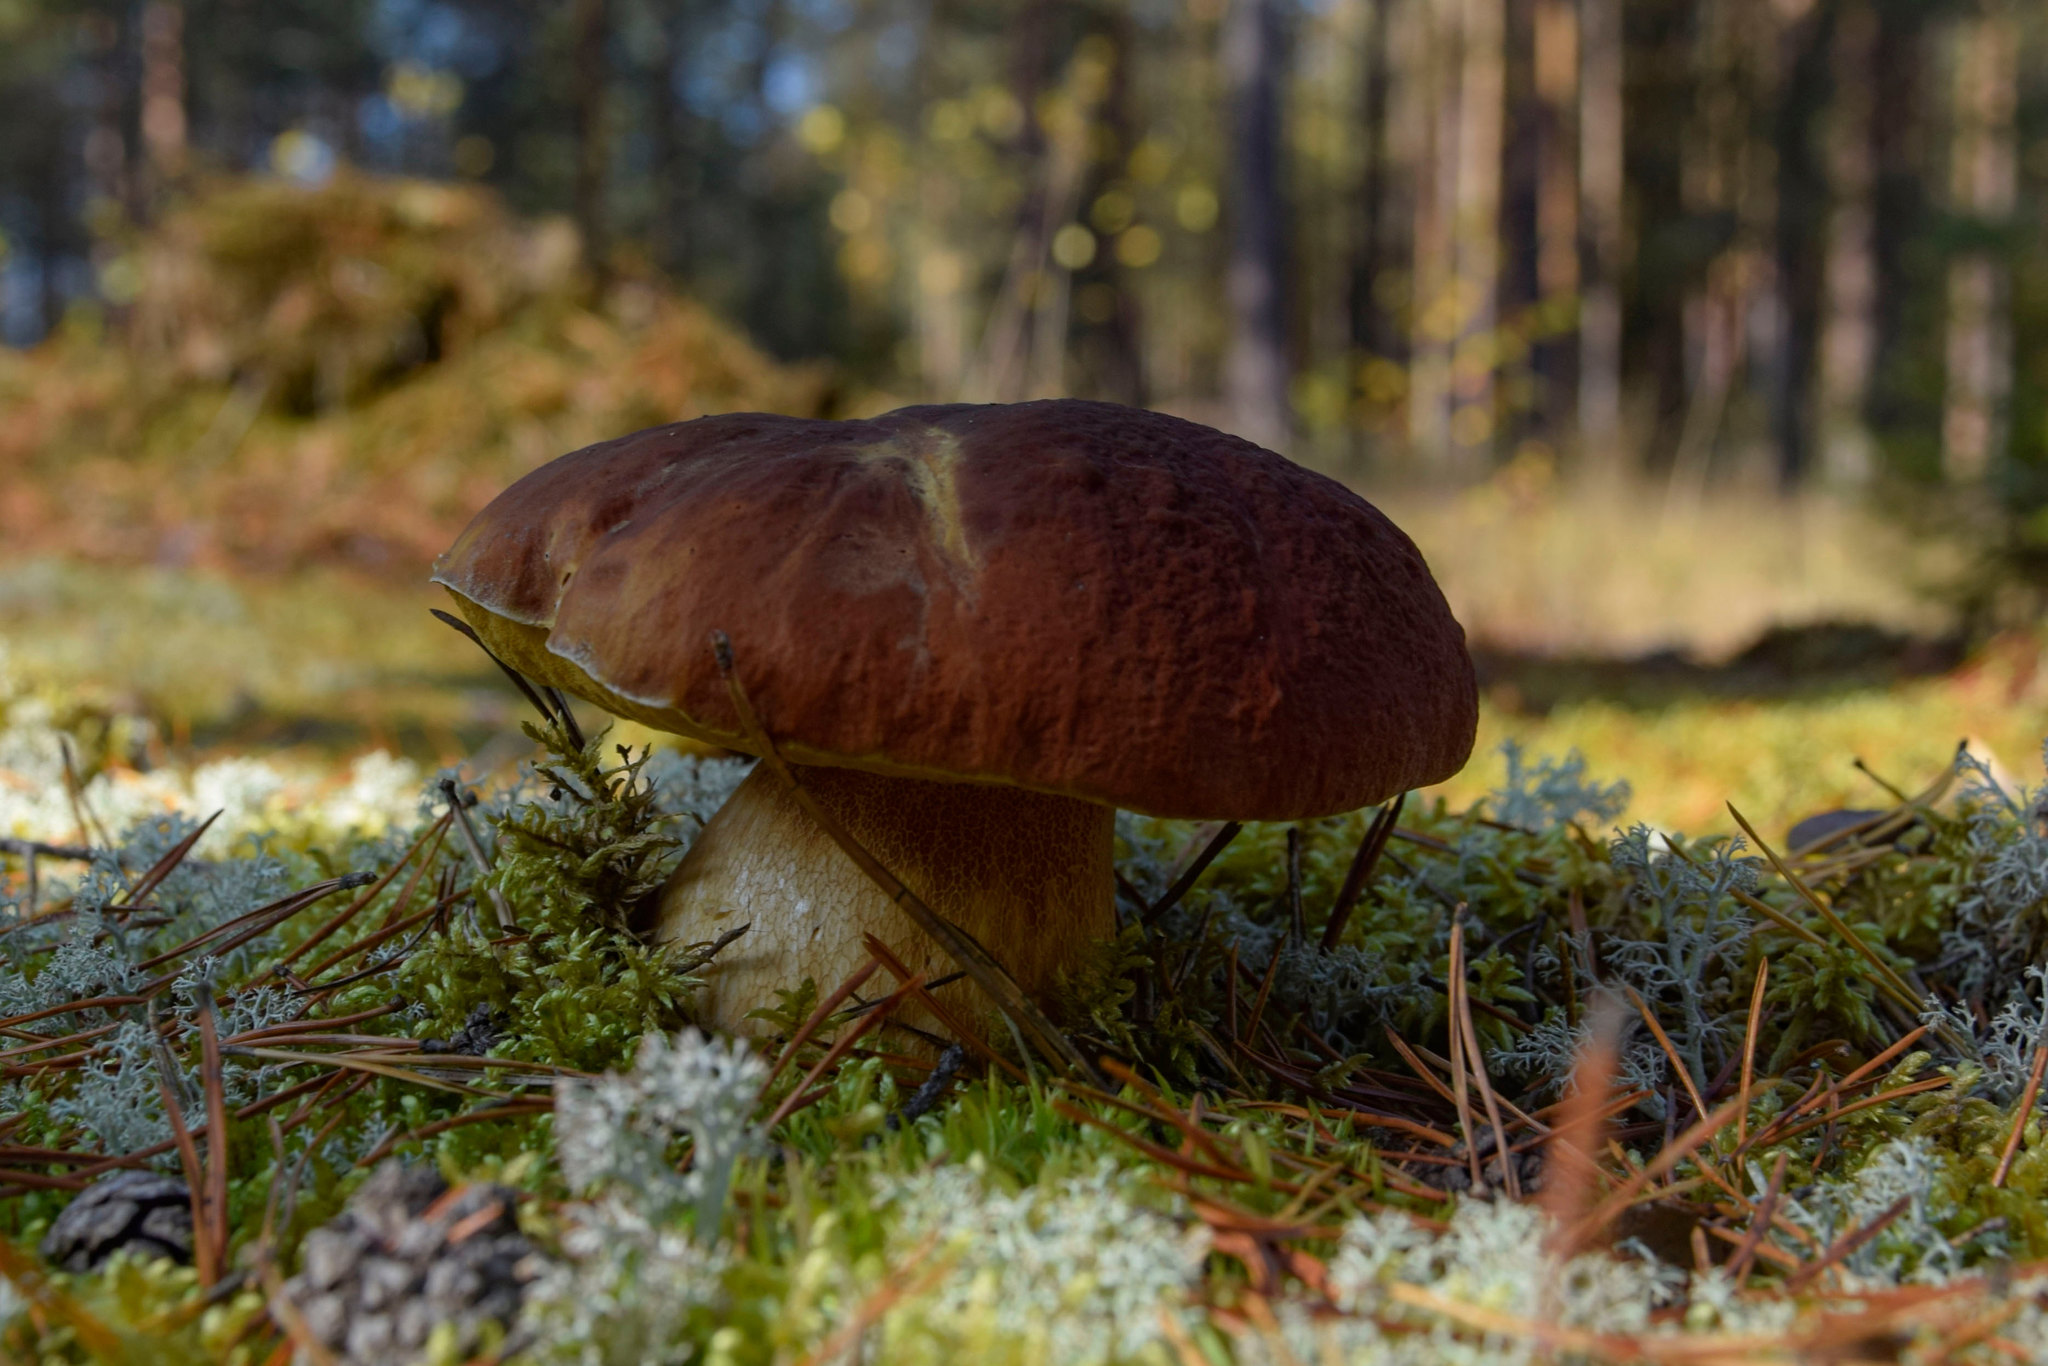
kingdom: Fungi
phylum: Basidiomycota
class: Agaricomycetes
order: Boletales
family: Boletaceae
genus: Boletus
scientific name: Boletus pinophilus
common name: Pine bolete
